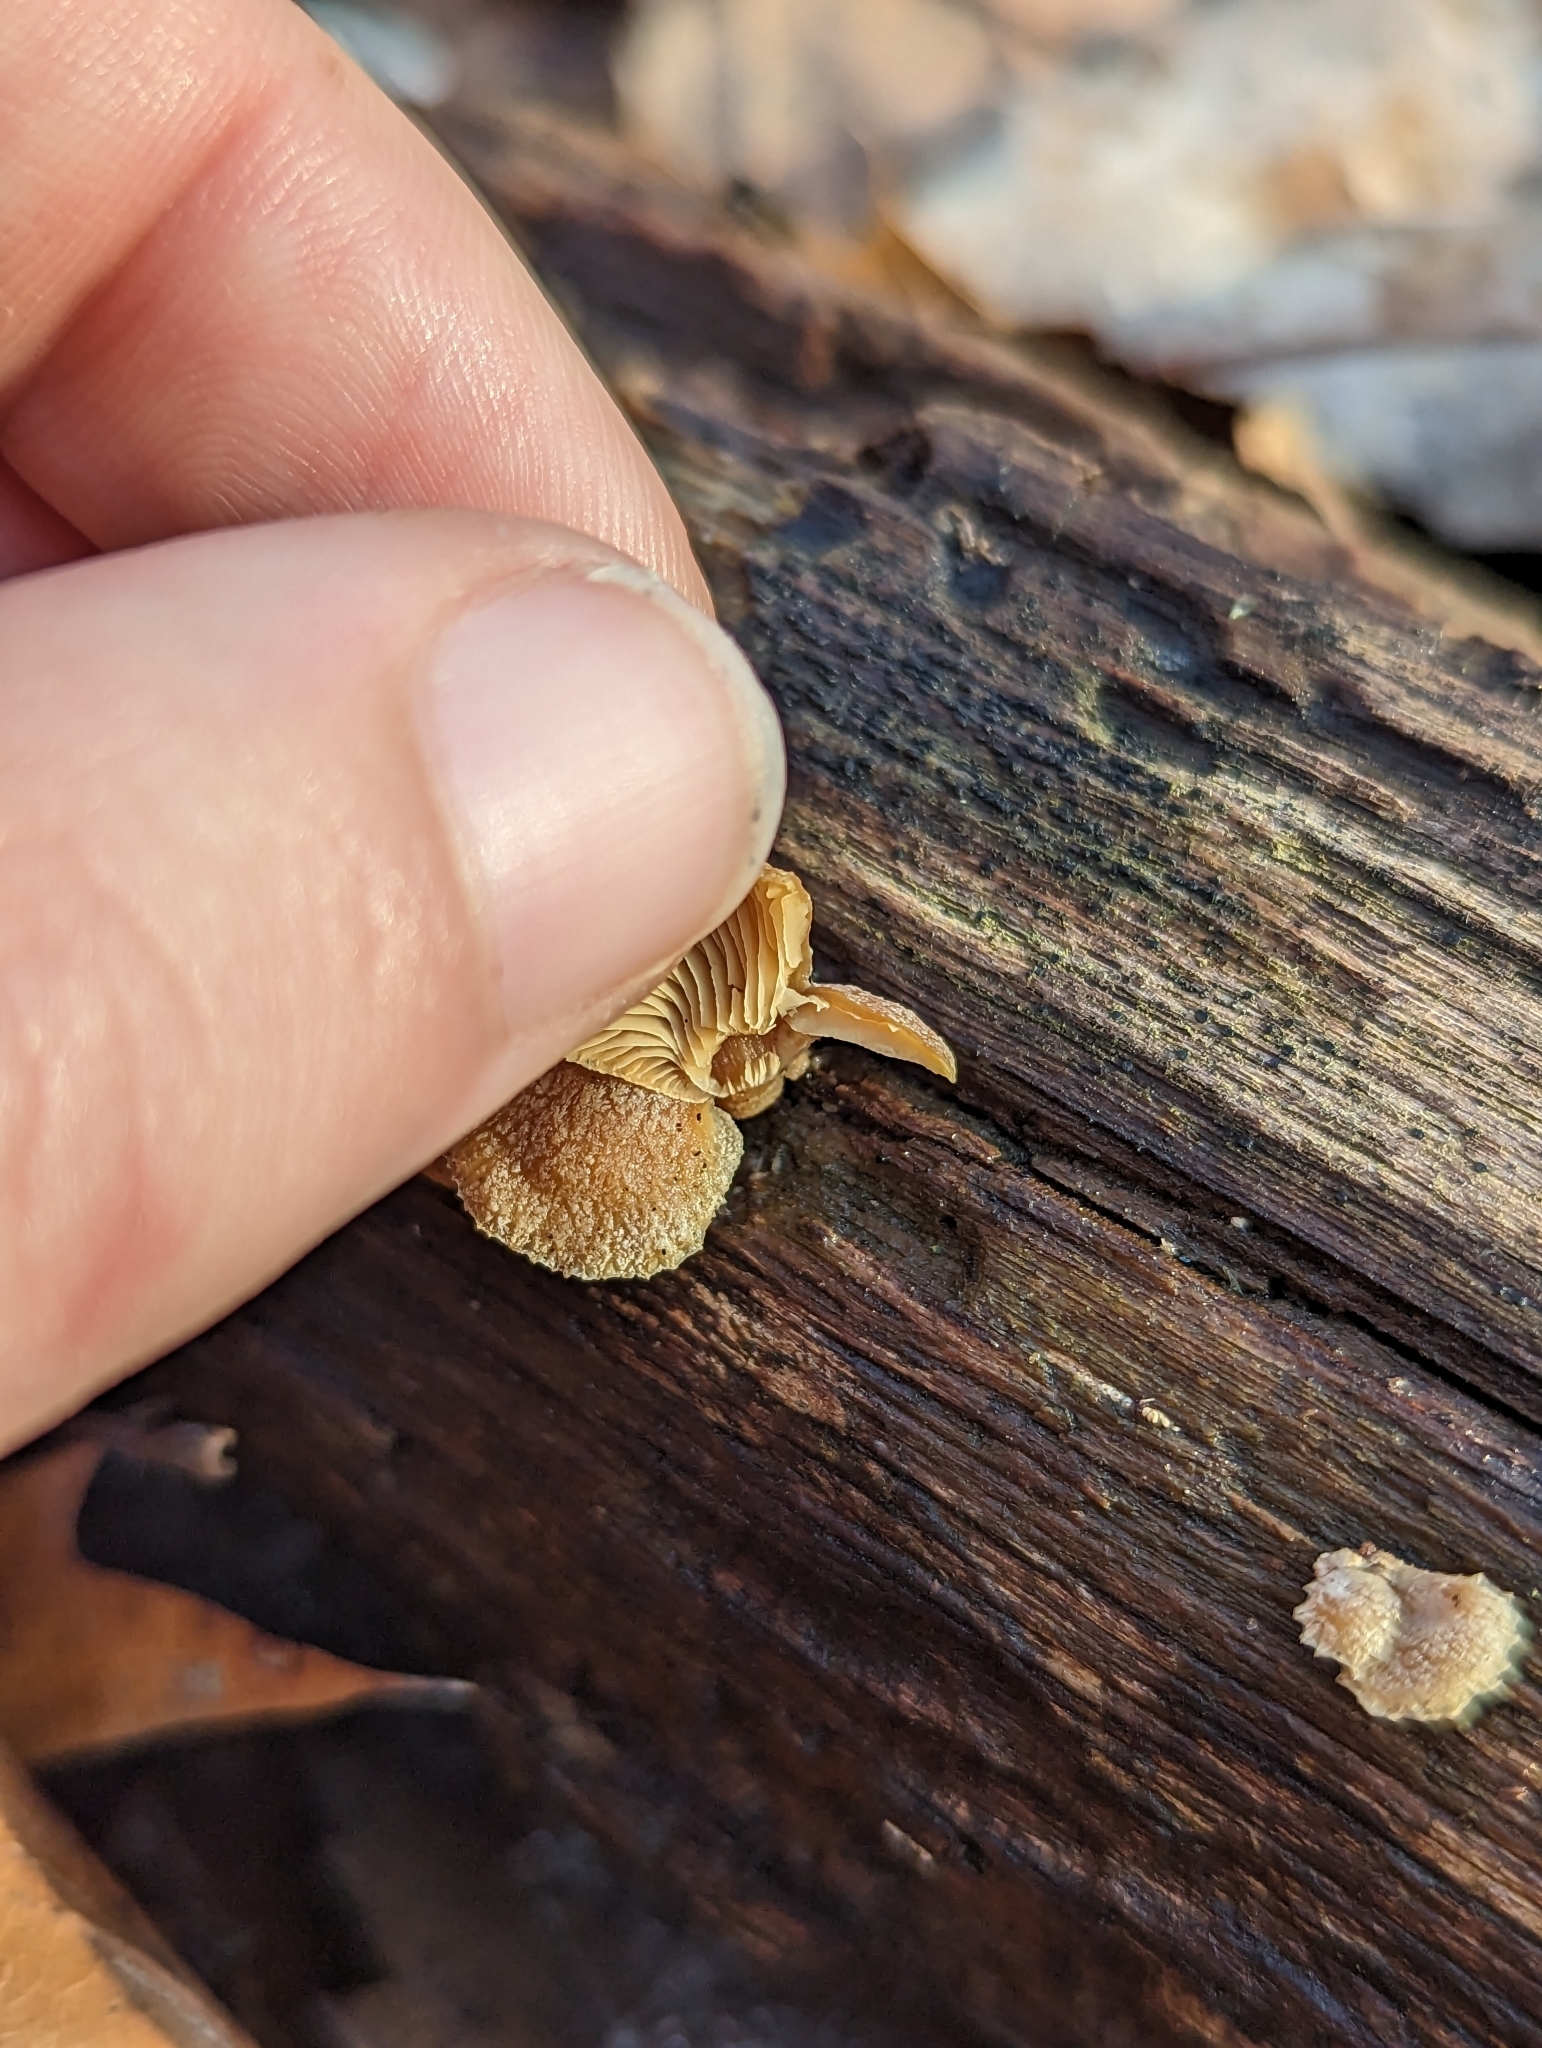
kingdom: Fungi
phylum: Basidiomycota
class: Agaricomycetes
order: Agaricales
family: Mycenaceae
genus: Panellus
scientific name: Panellus stipticus
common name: Bitter oysterling
